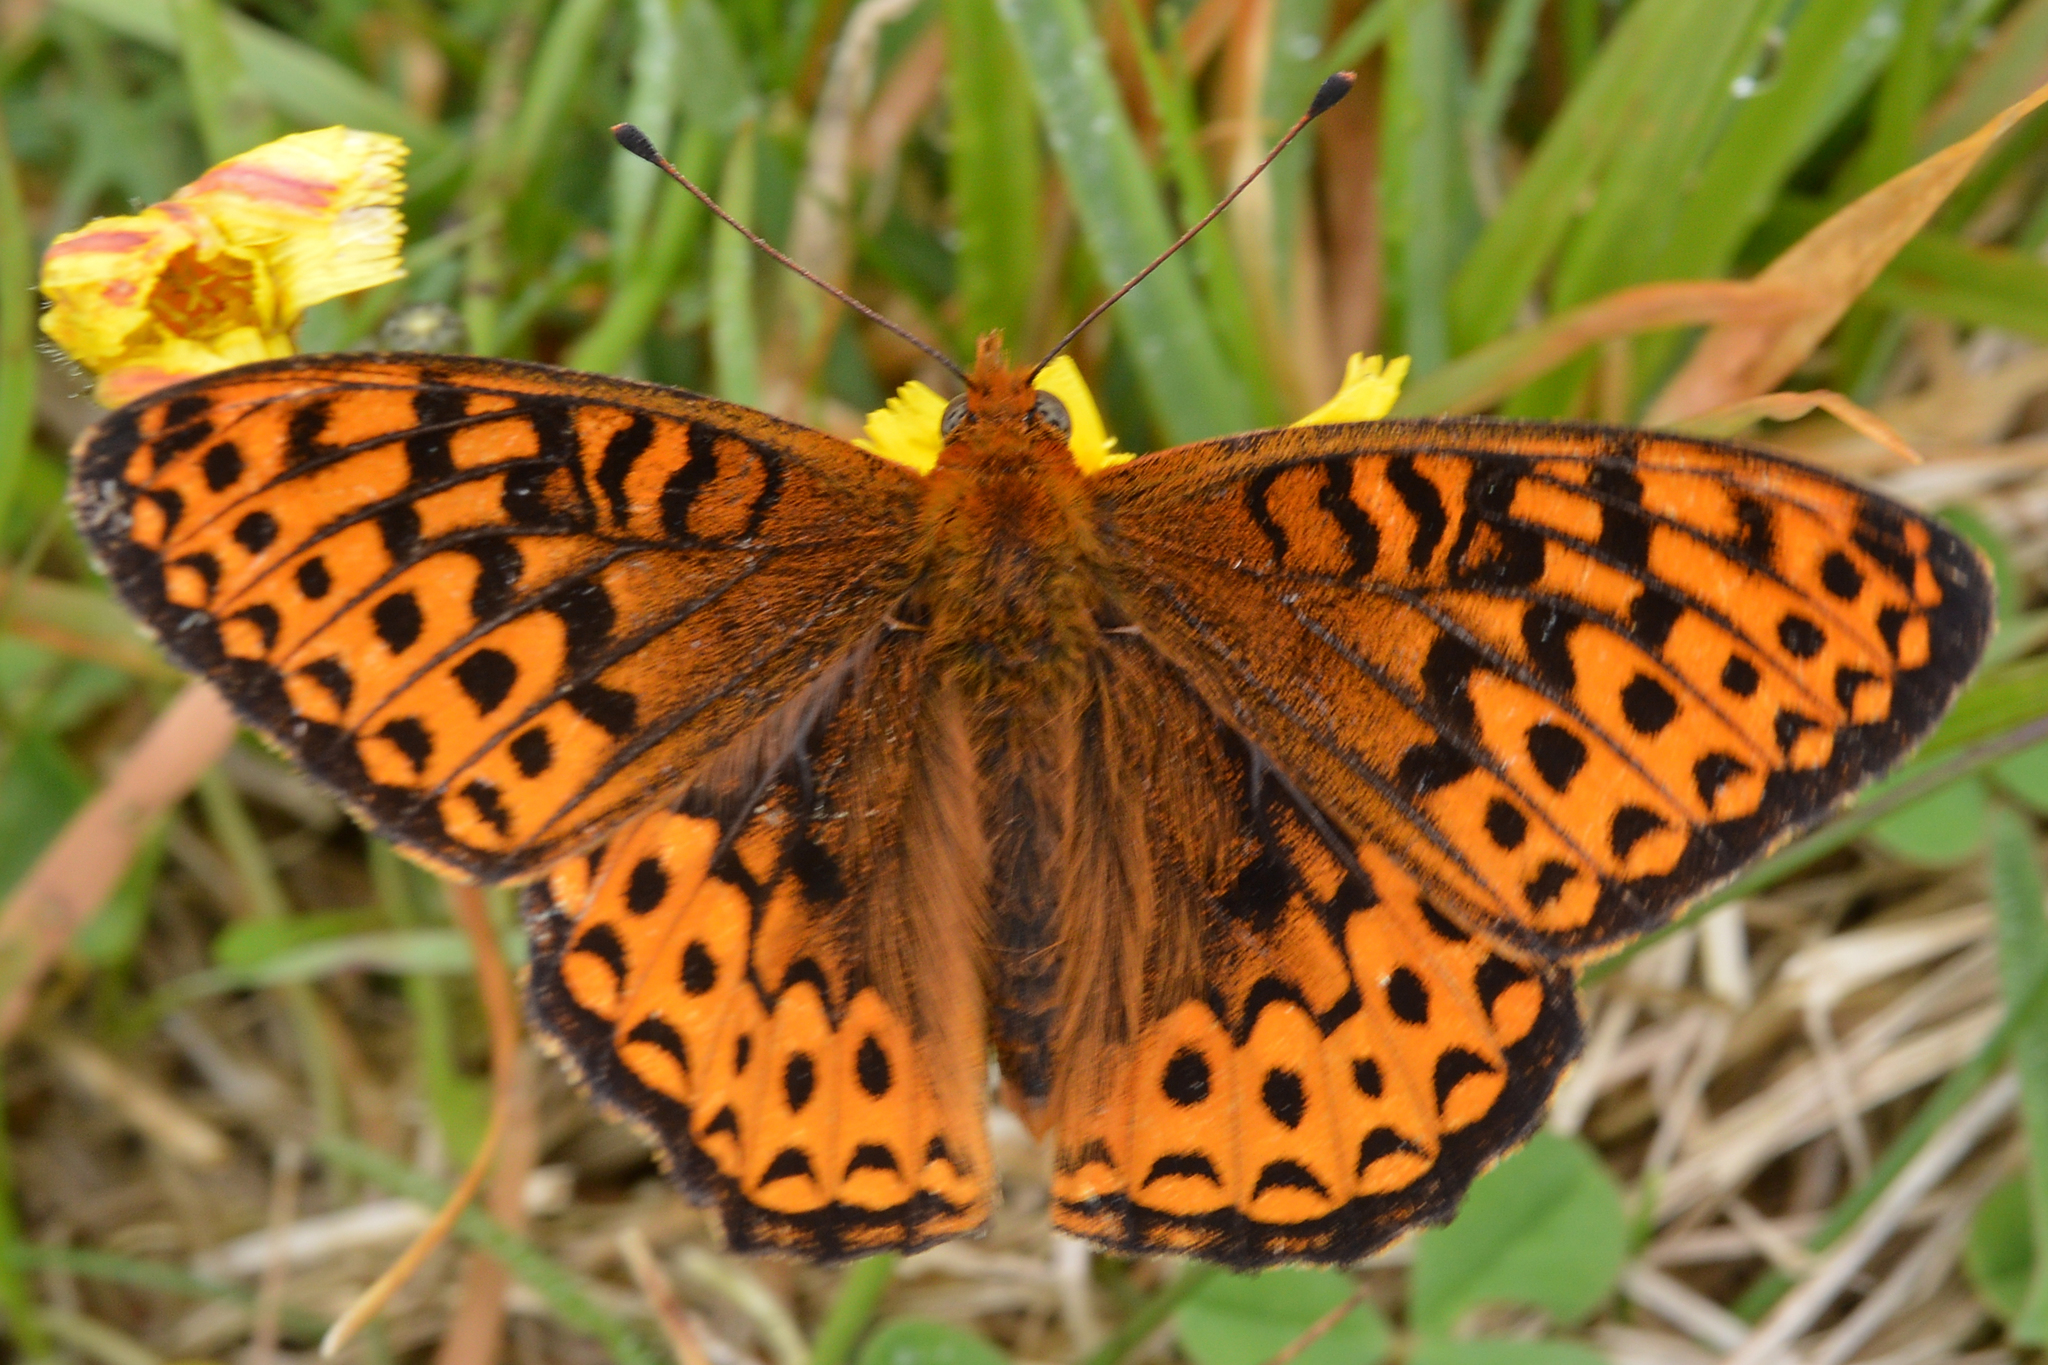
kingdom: Animalia
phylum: Arthropoda
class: Insecta
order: Lepidoptera
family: Nymphalidae
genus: Speyeria
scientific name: Speyeria atlantis
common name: Atlantis fritillary
